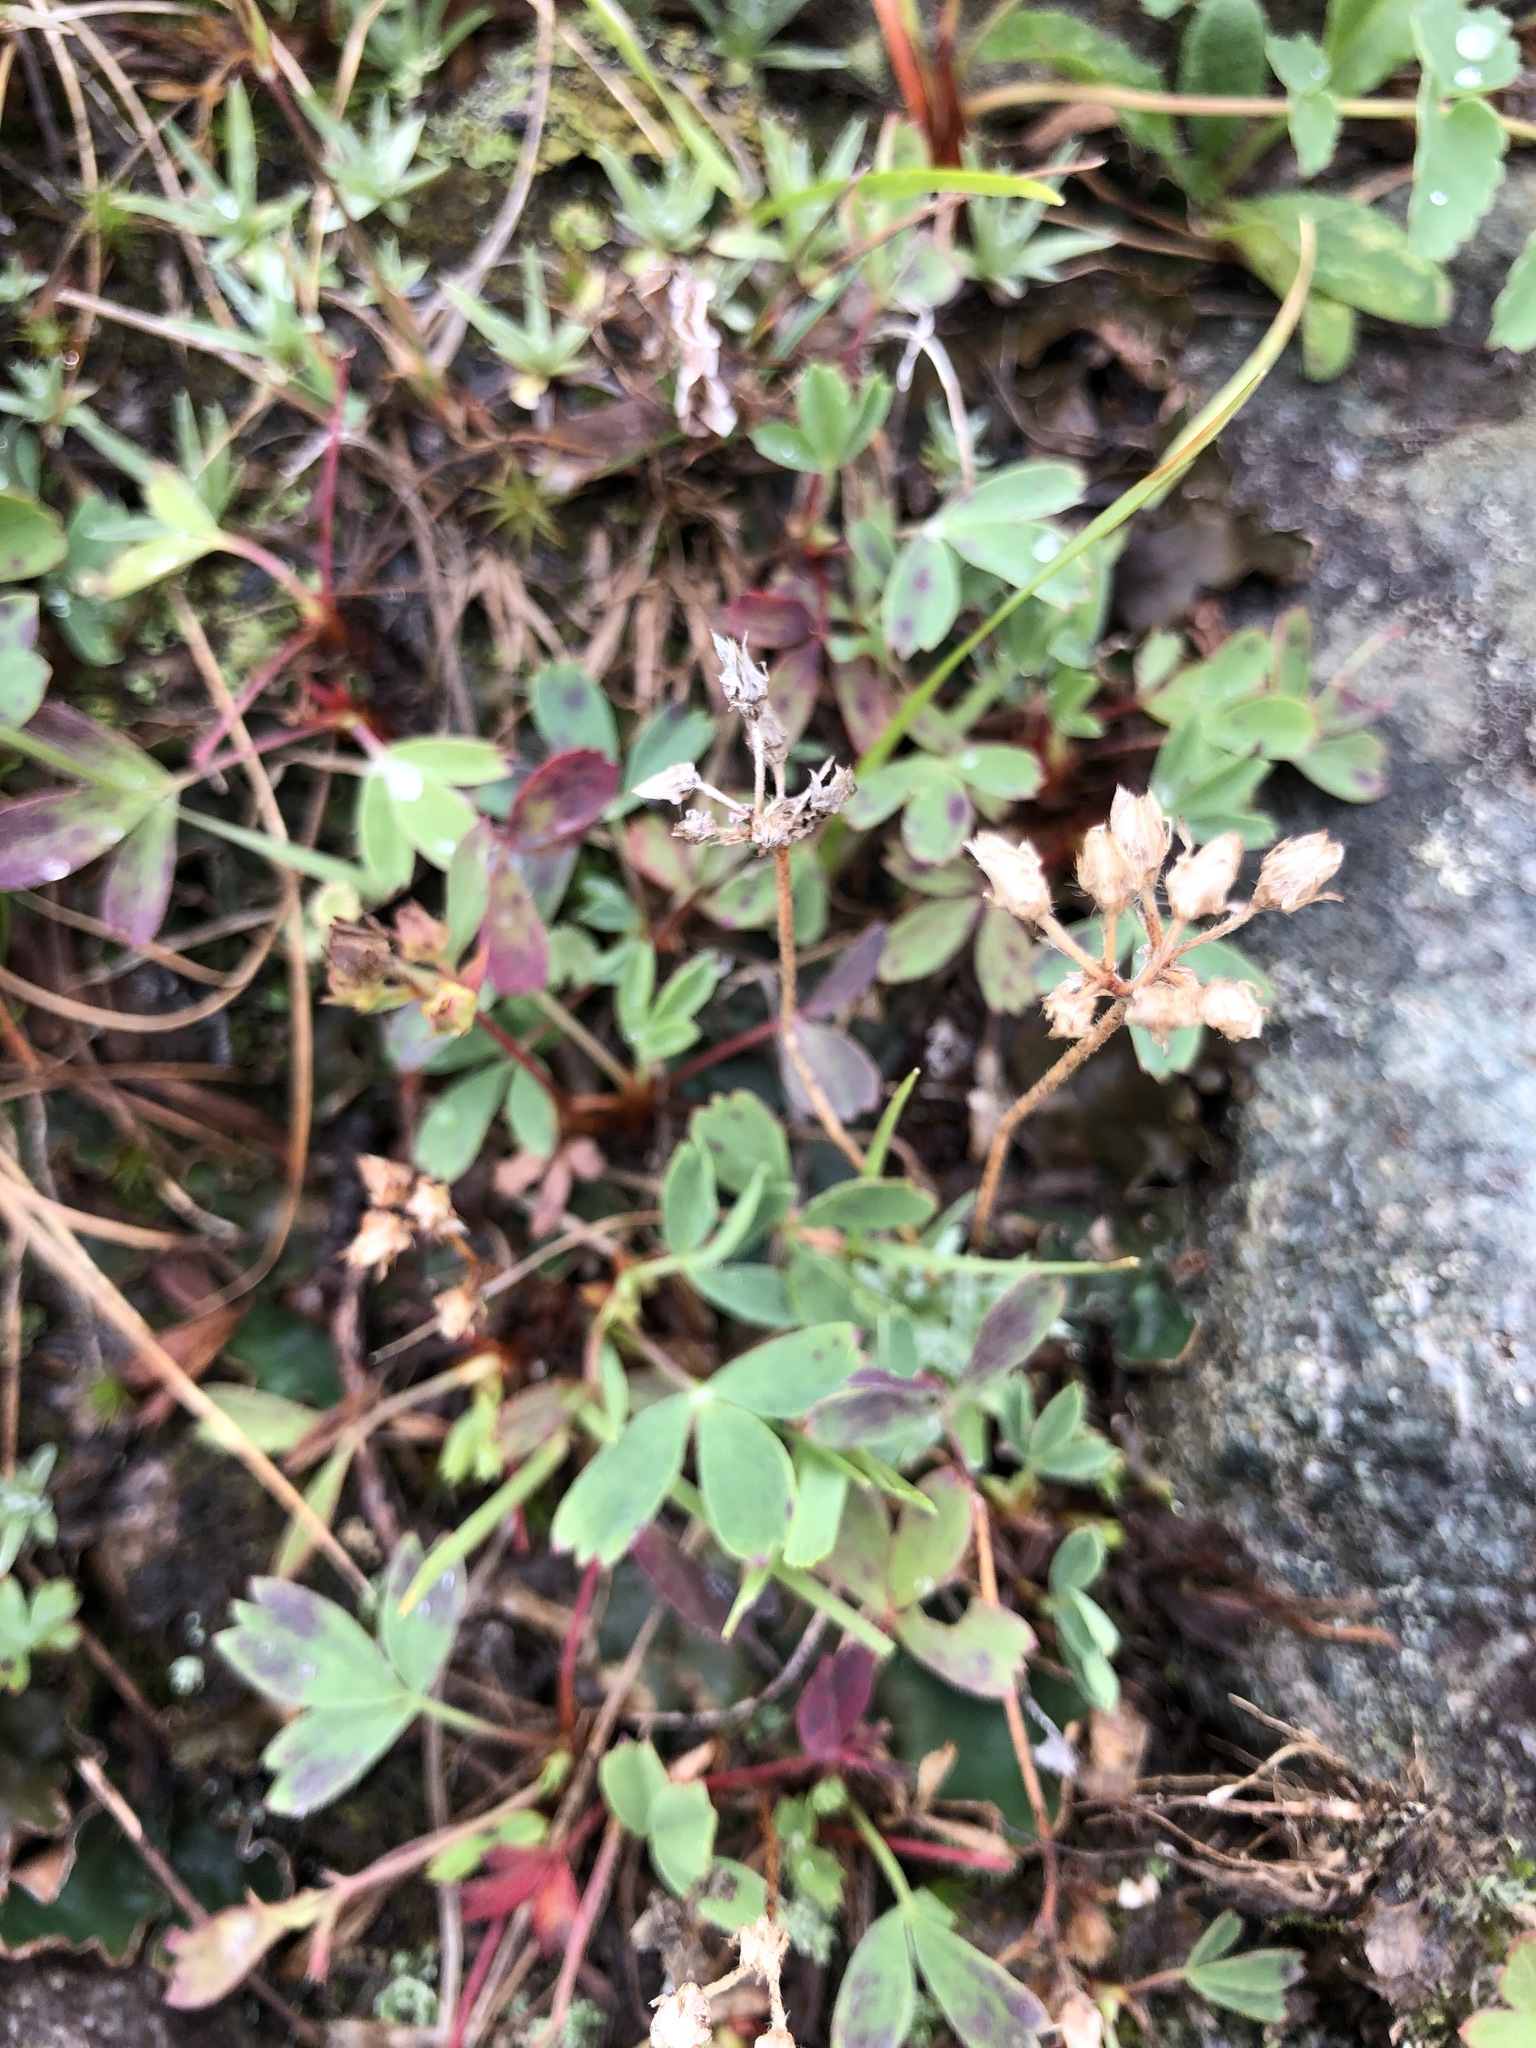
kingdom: Plantae
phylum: Tracheophyta
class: Magnoliopsida
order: Rosales
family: Rosaceae
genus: Sibbaldia
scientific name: Sibbaldia procumbens
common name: Creeping sibbaldia
